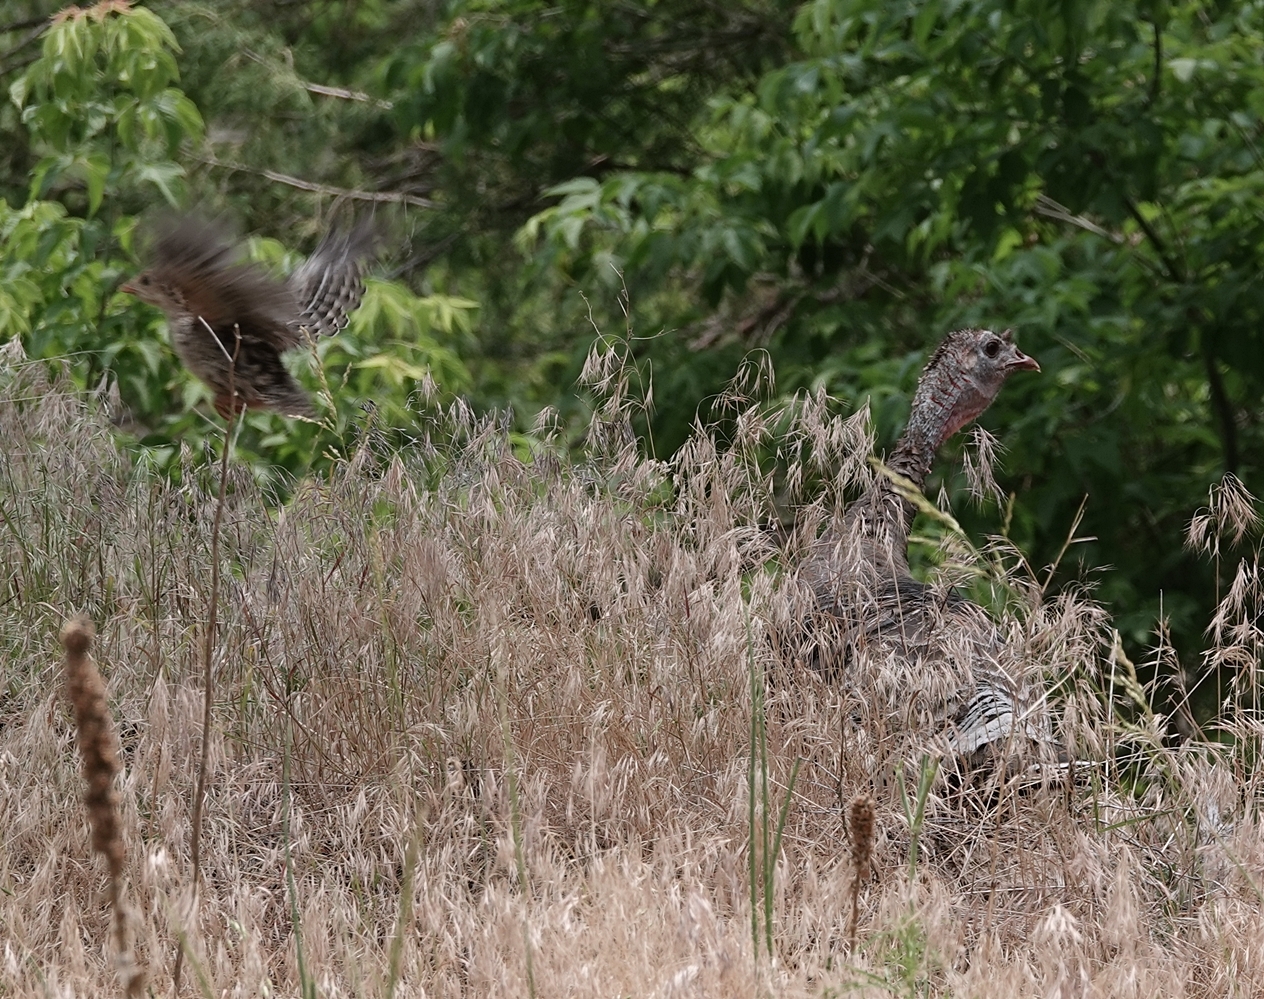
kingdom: Animalia
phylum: Chordata
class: Aves
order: Galliformes
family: Phasianidae
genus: Meleagris
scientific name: Meleagris gallopavo
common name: Wild turkey
